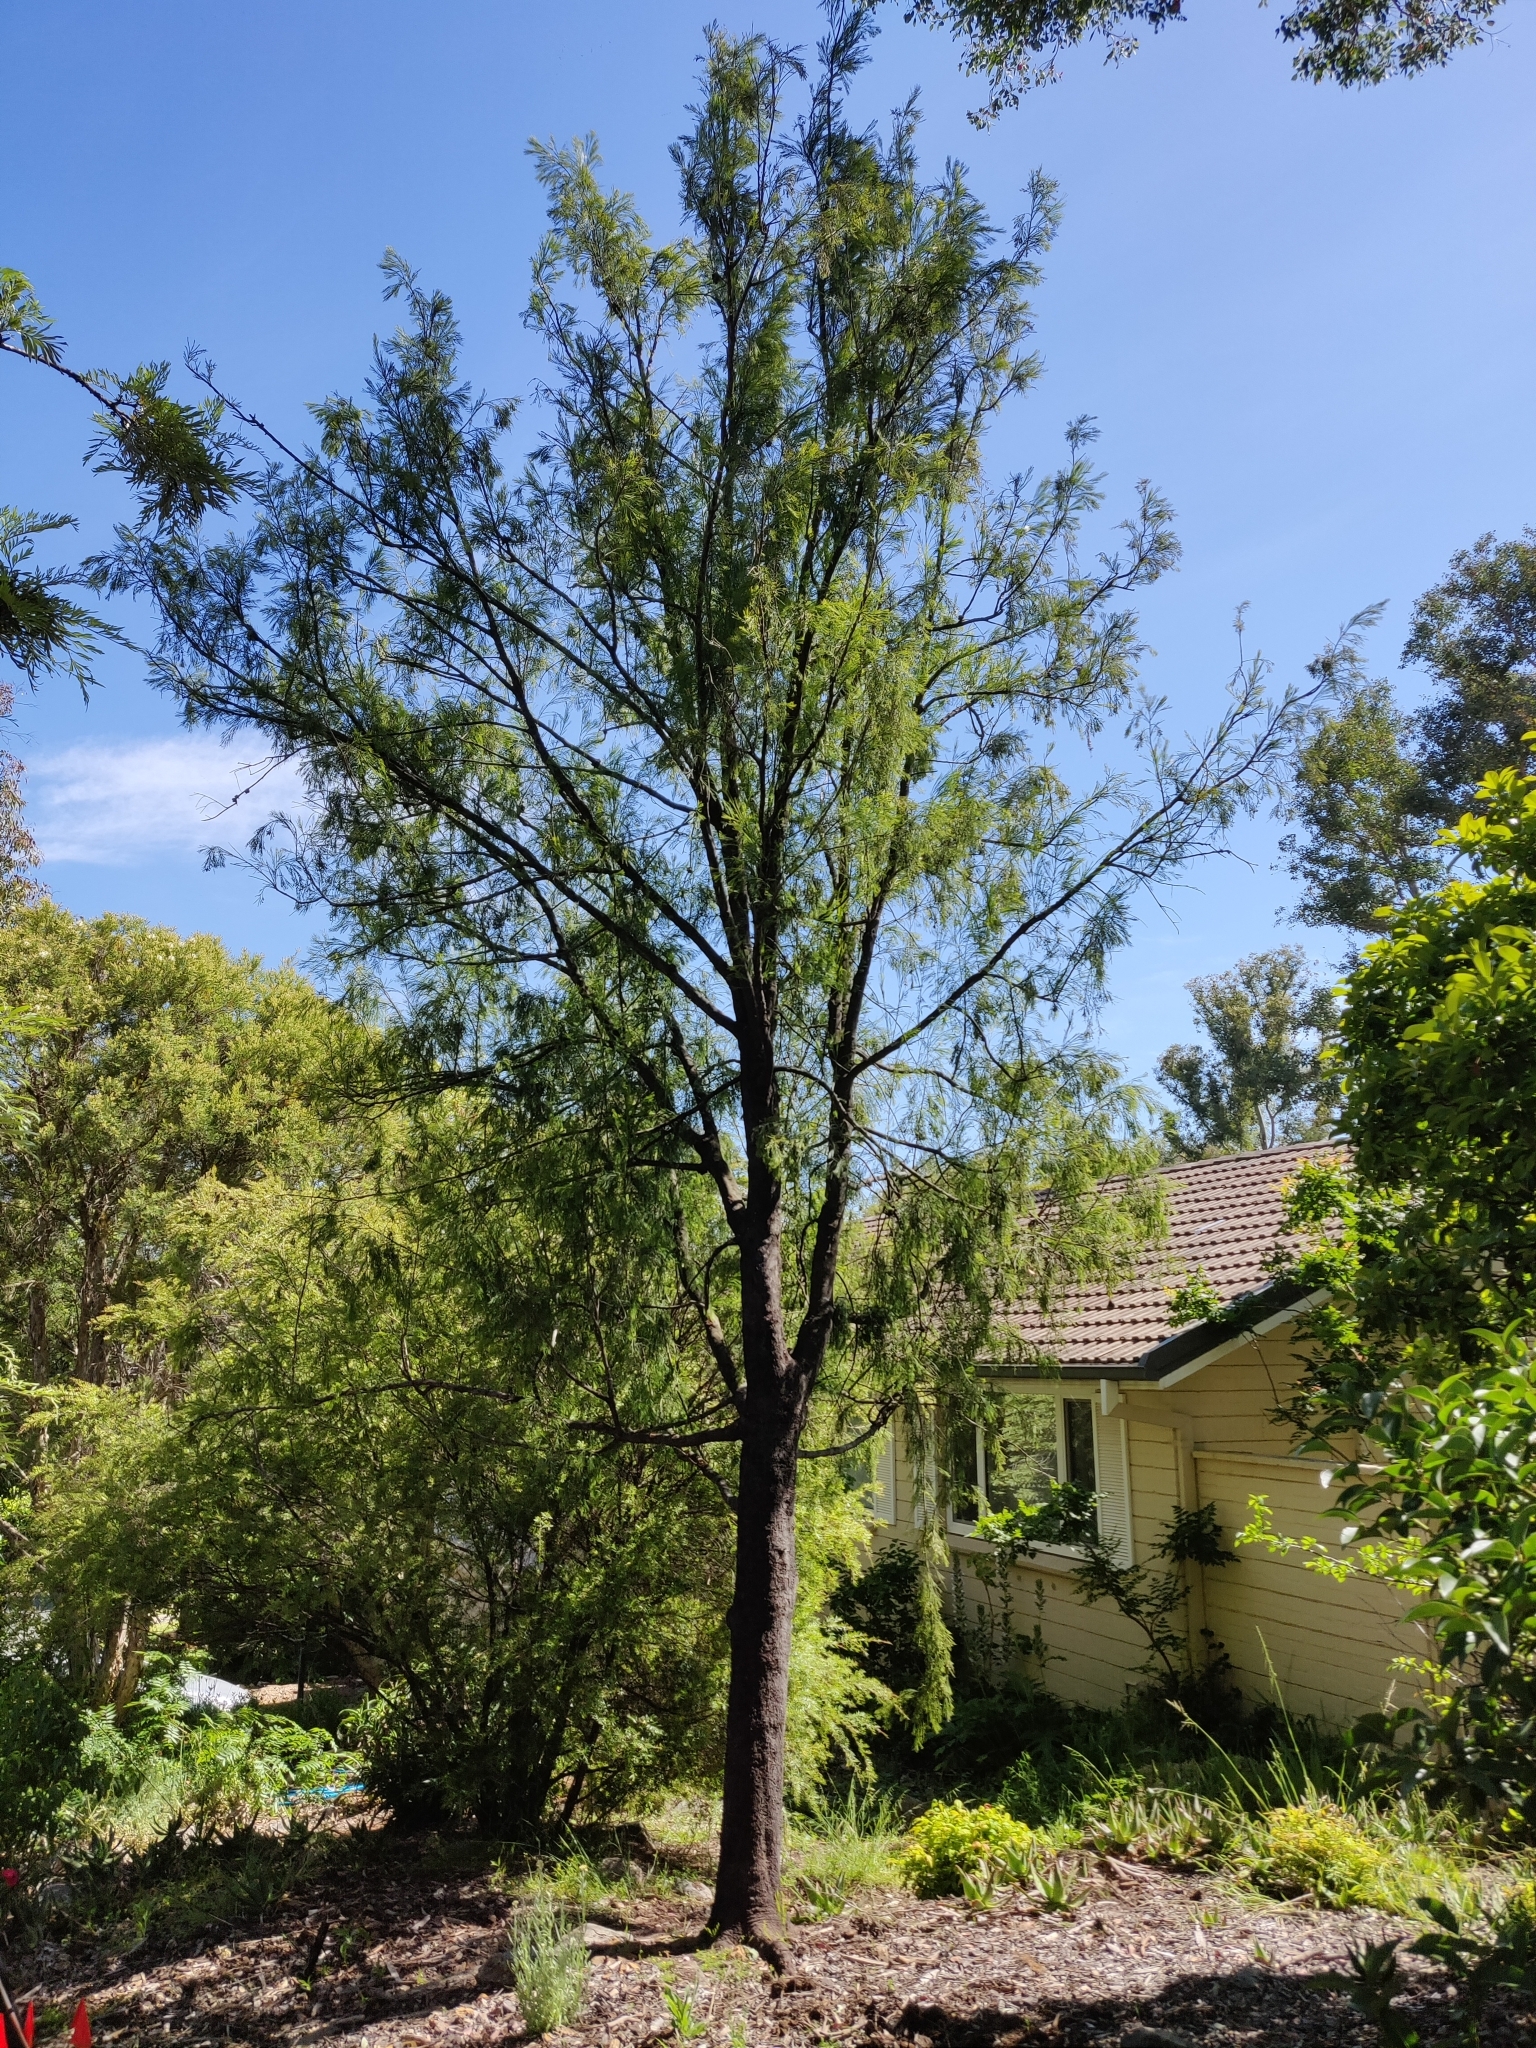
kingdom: Plantae
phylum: Tracheophyta
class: Magnoliopsida
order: Santalales
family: Santalaceae
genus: Exocarpos
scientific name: Exocarpos cupressiformis
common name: Cherry ballart
